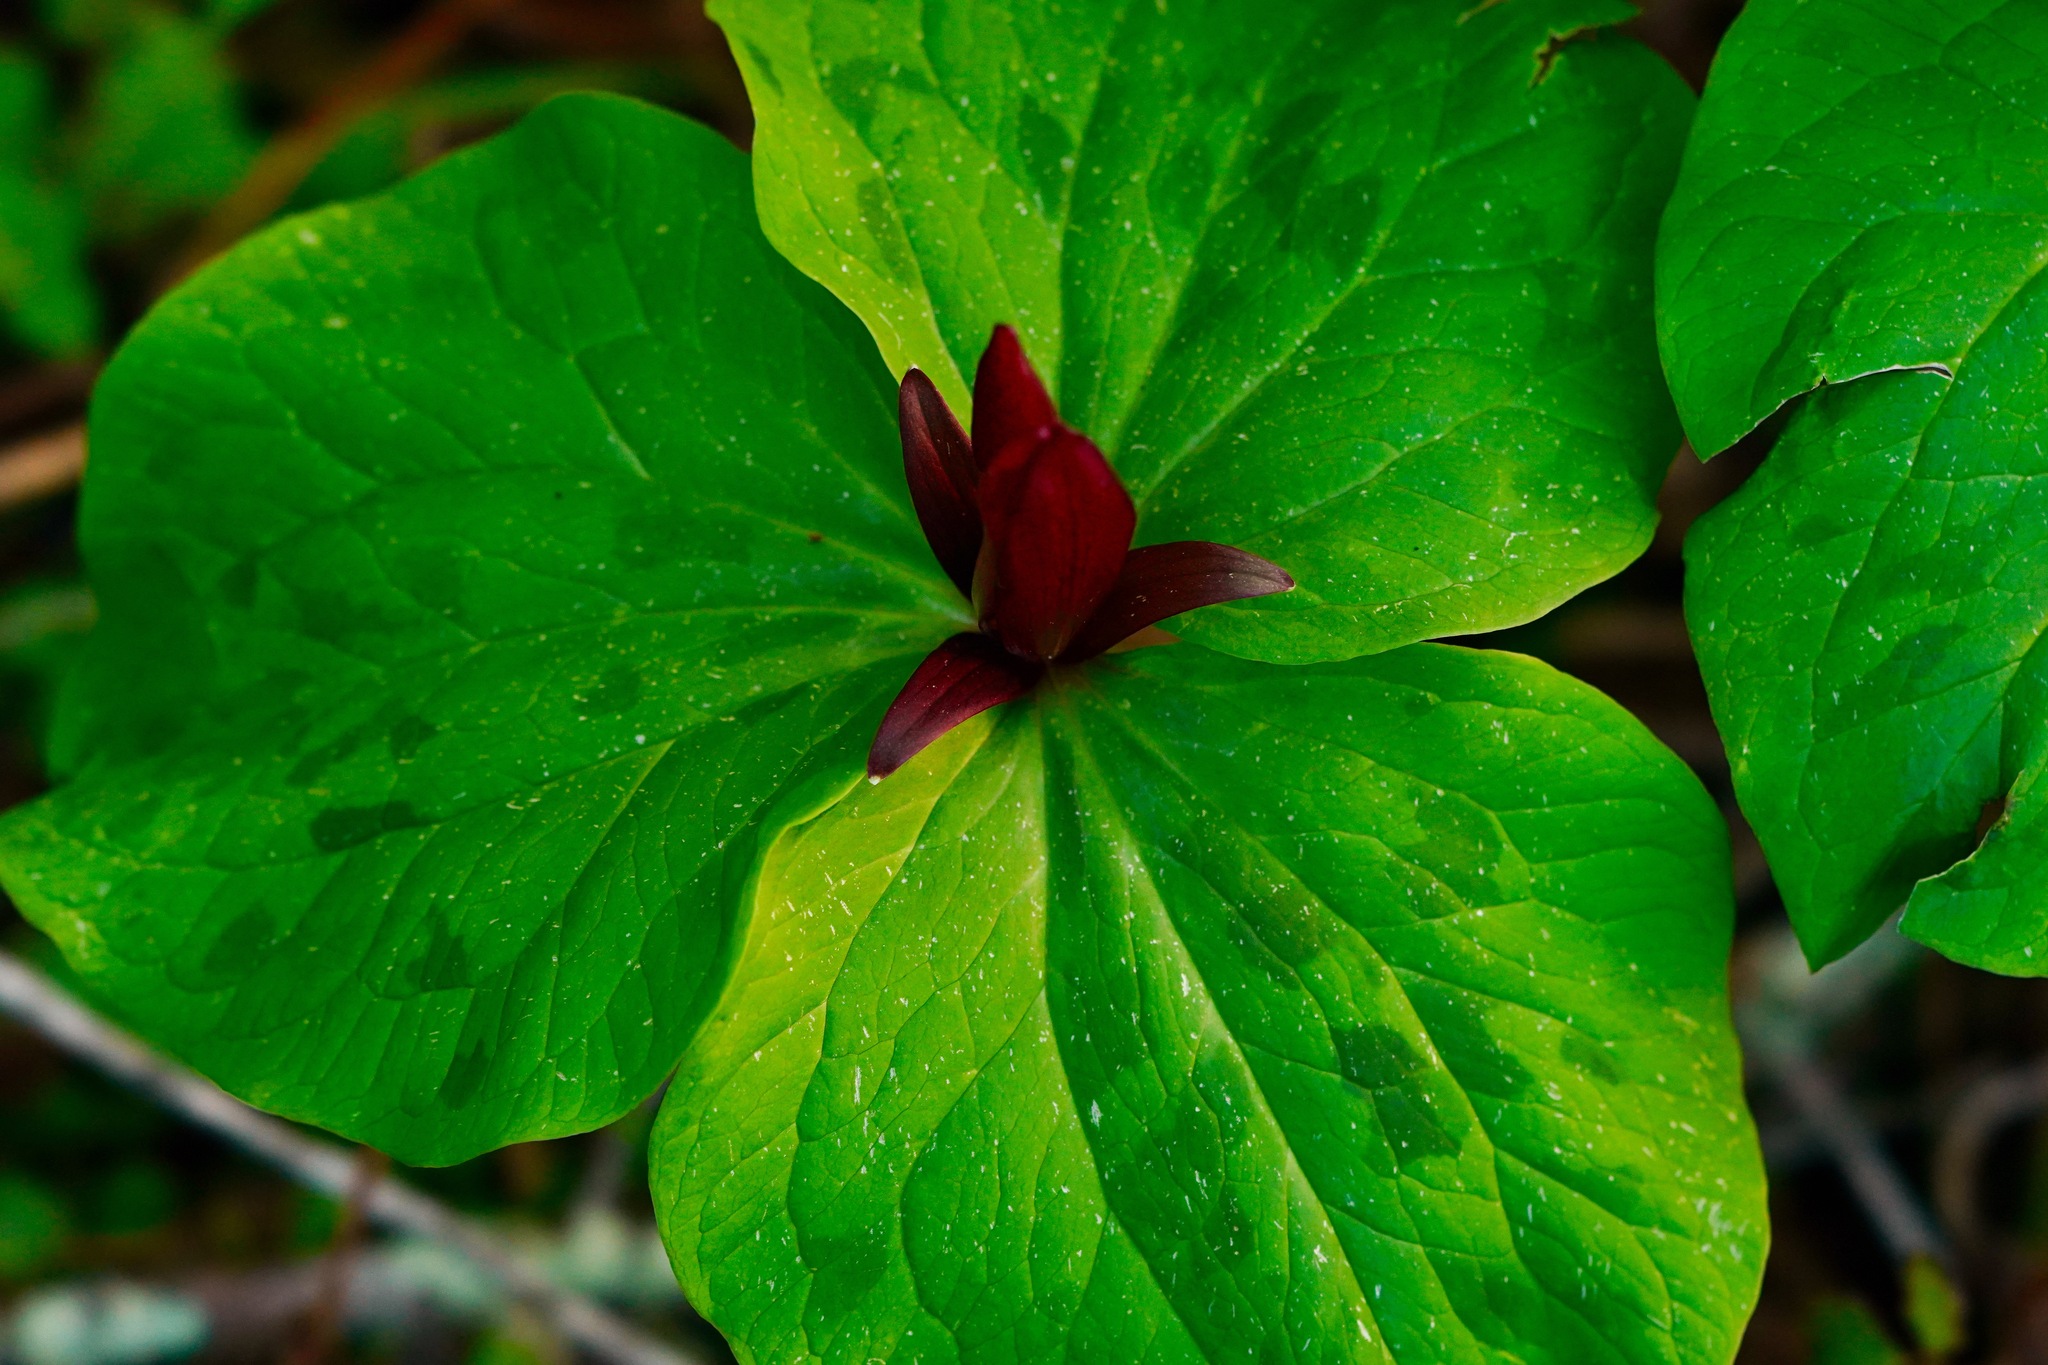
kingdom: Plantae
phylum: Tracheophyta
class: Liliopsida
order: Liliales
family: Melanthiaceae
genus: Trillium
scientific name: Trillium chloropetalum
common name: Giant trillium
